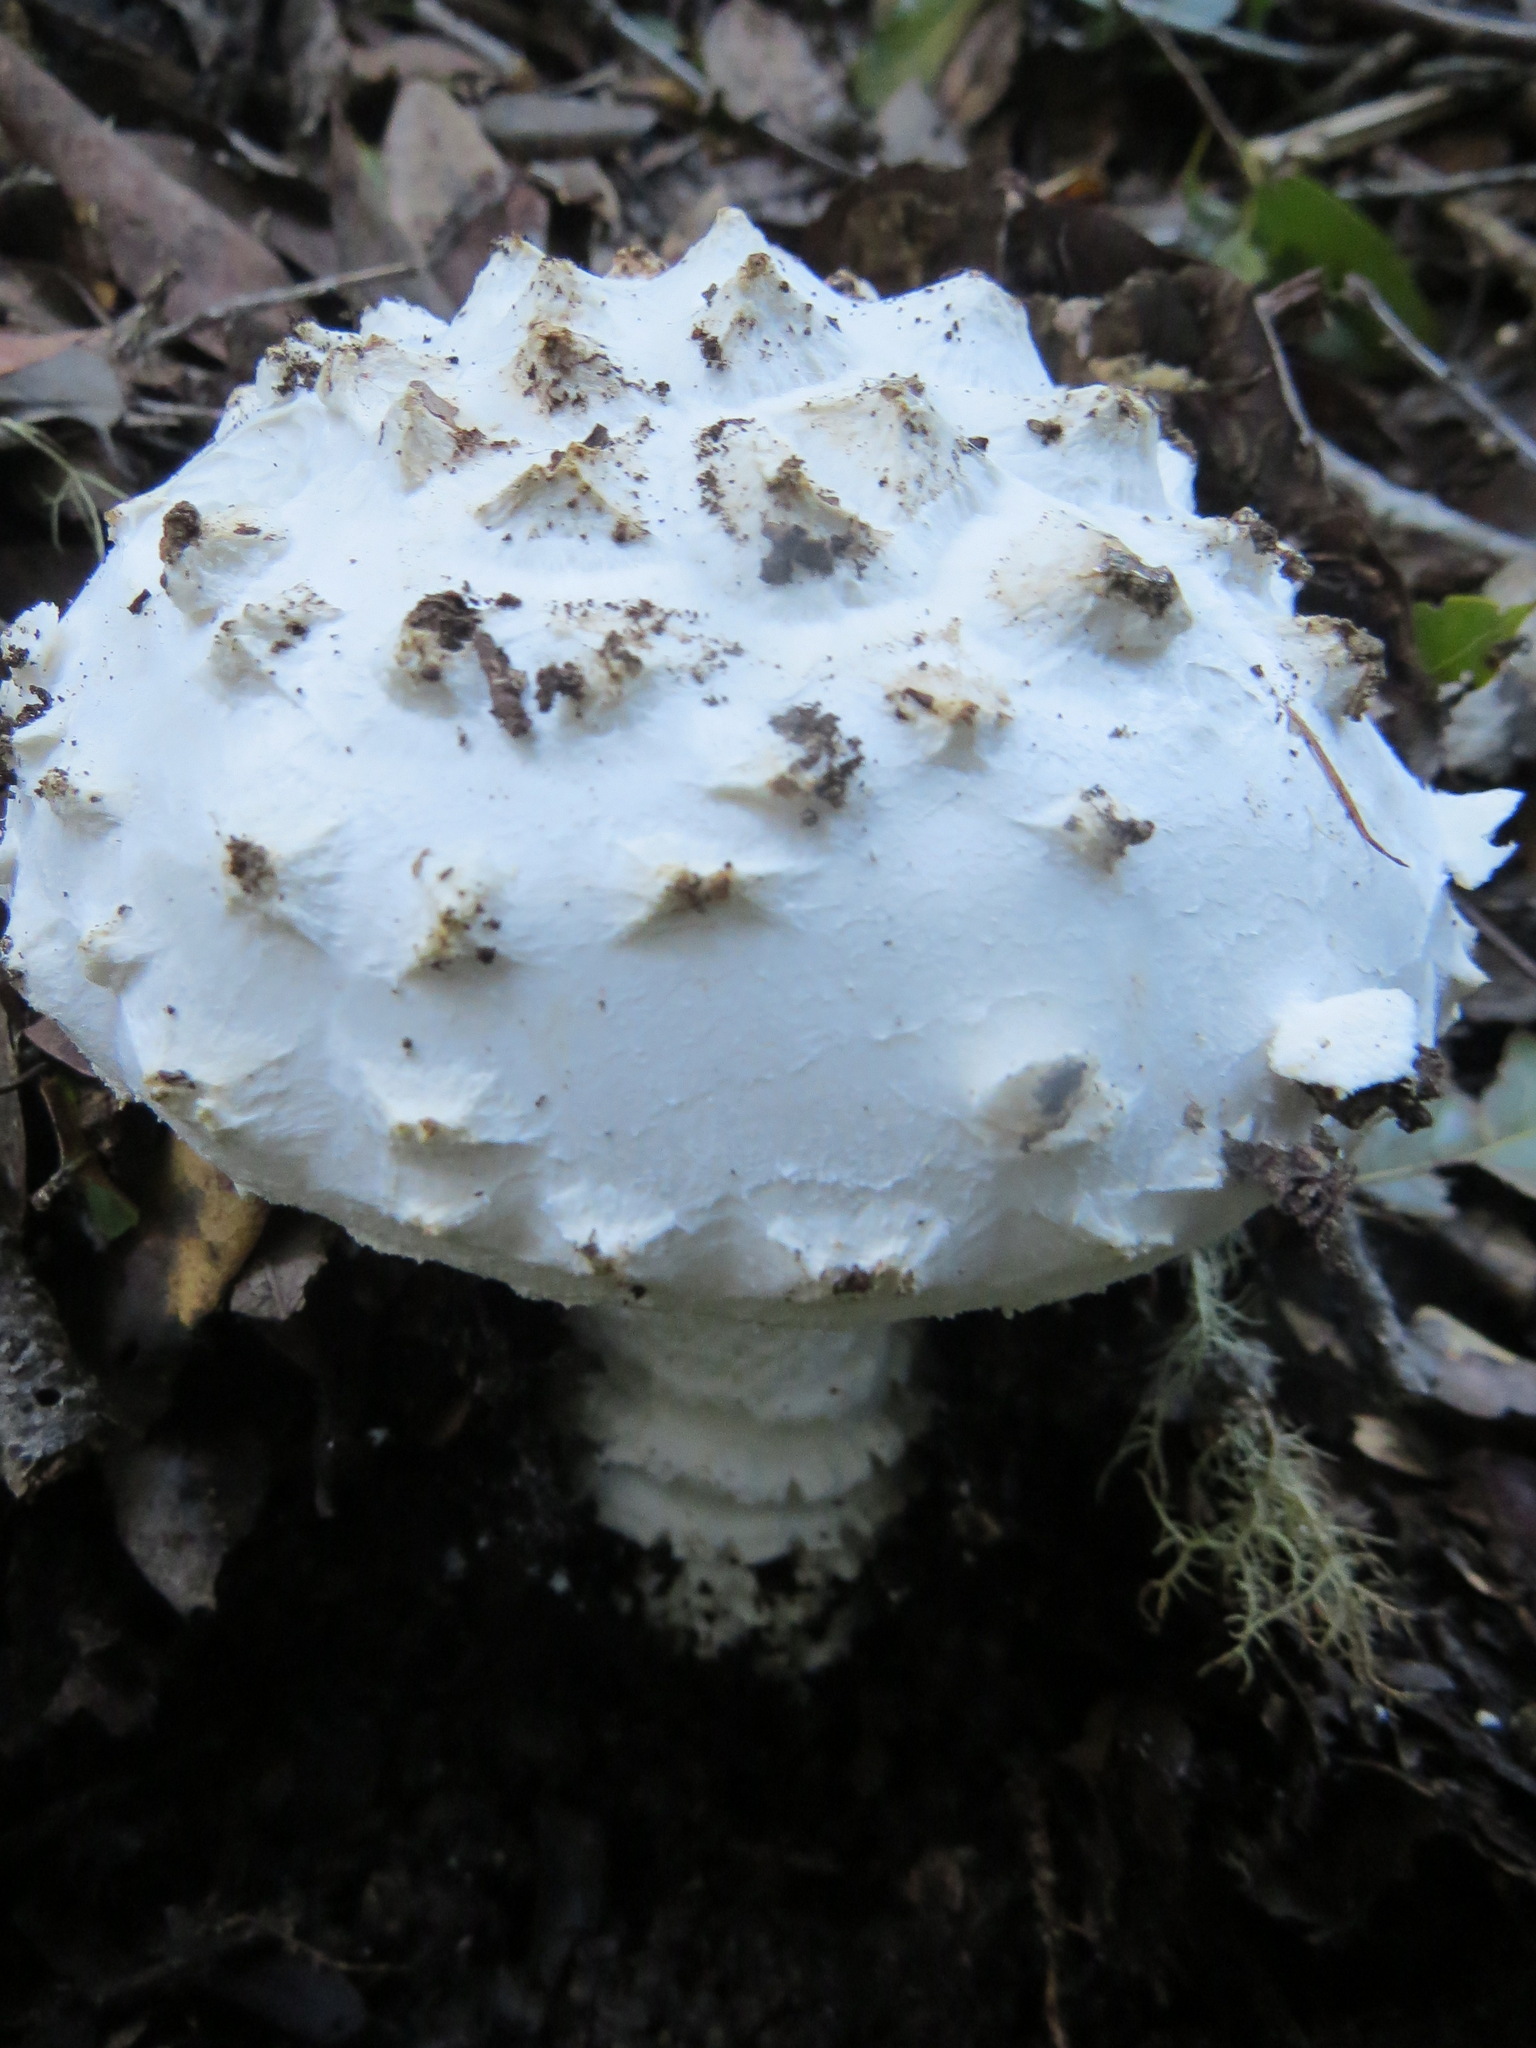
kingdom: Fungi
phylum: Basidiomycota
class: Agaricomycetes
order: Agaricales
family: Amanitaceae
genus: Amanita
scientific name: Amanita magniverrucata
